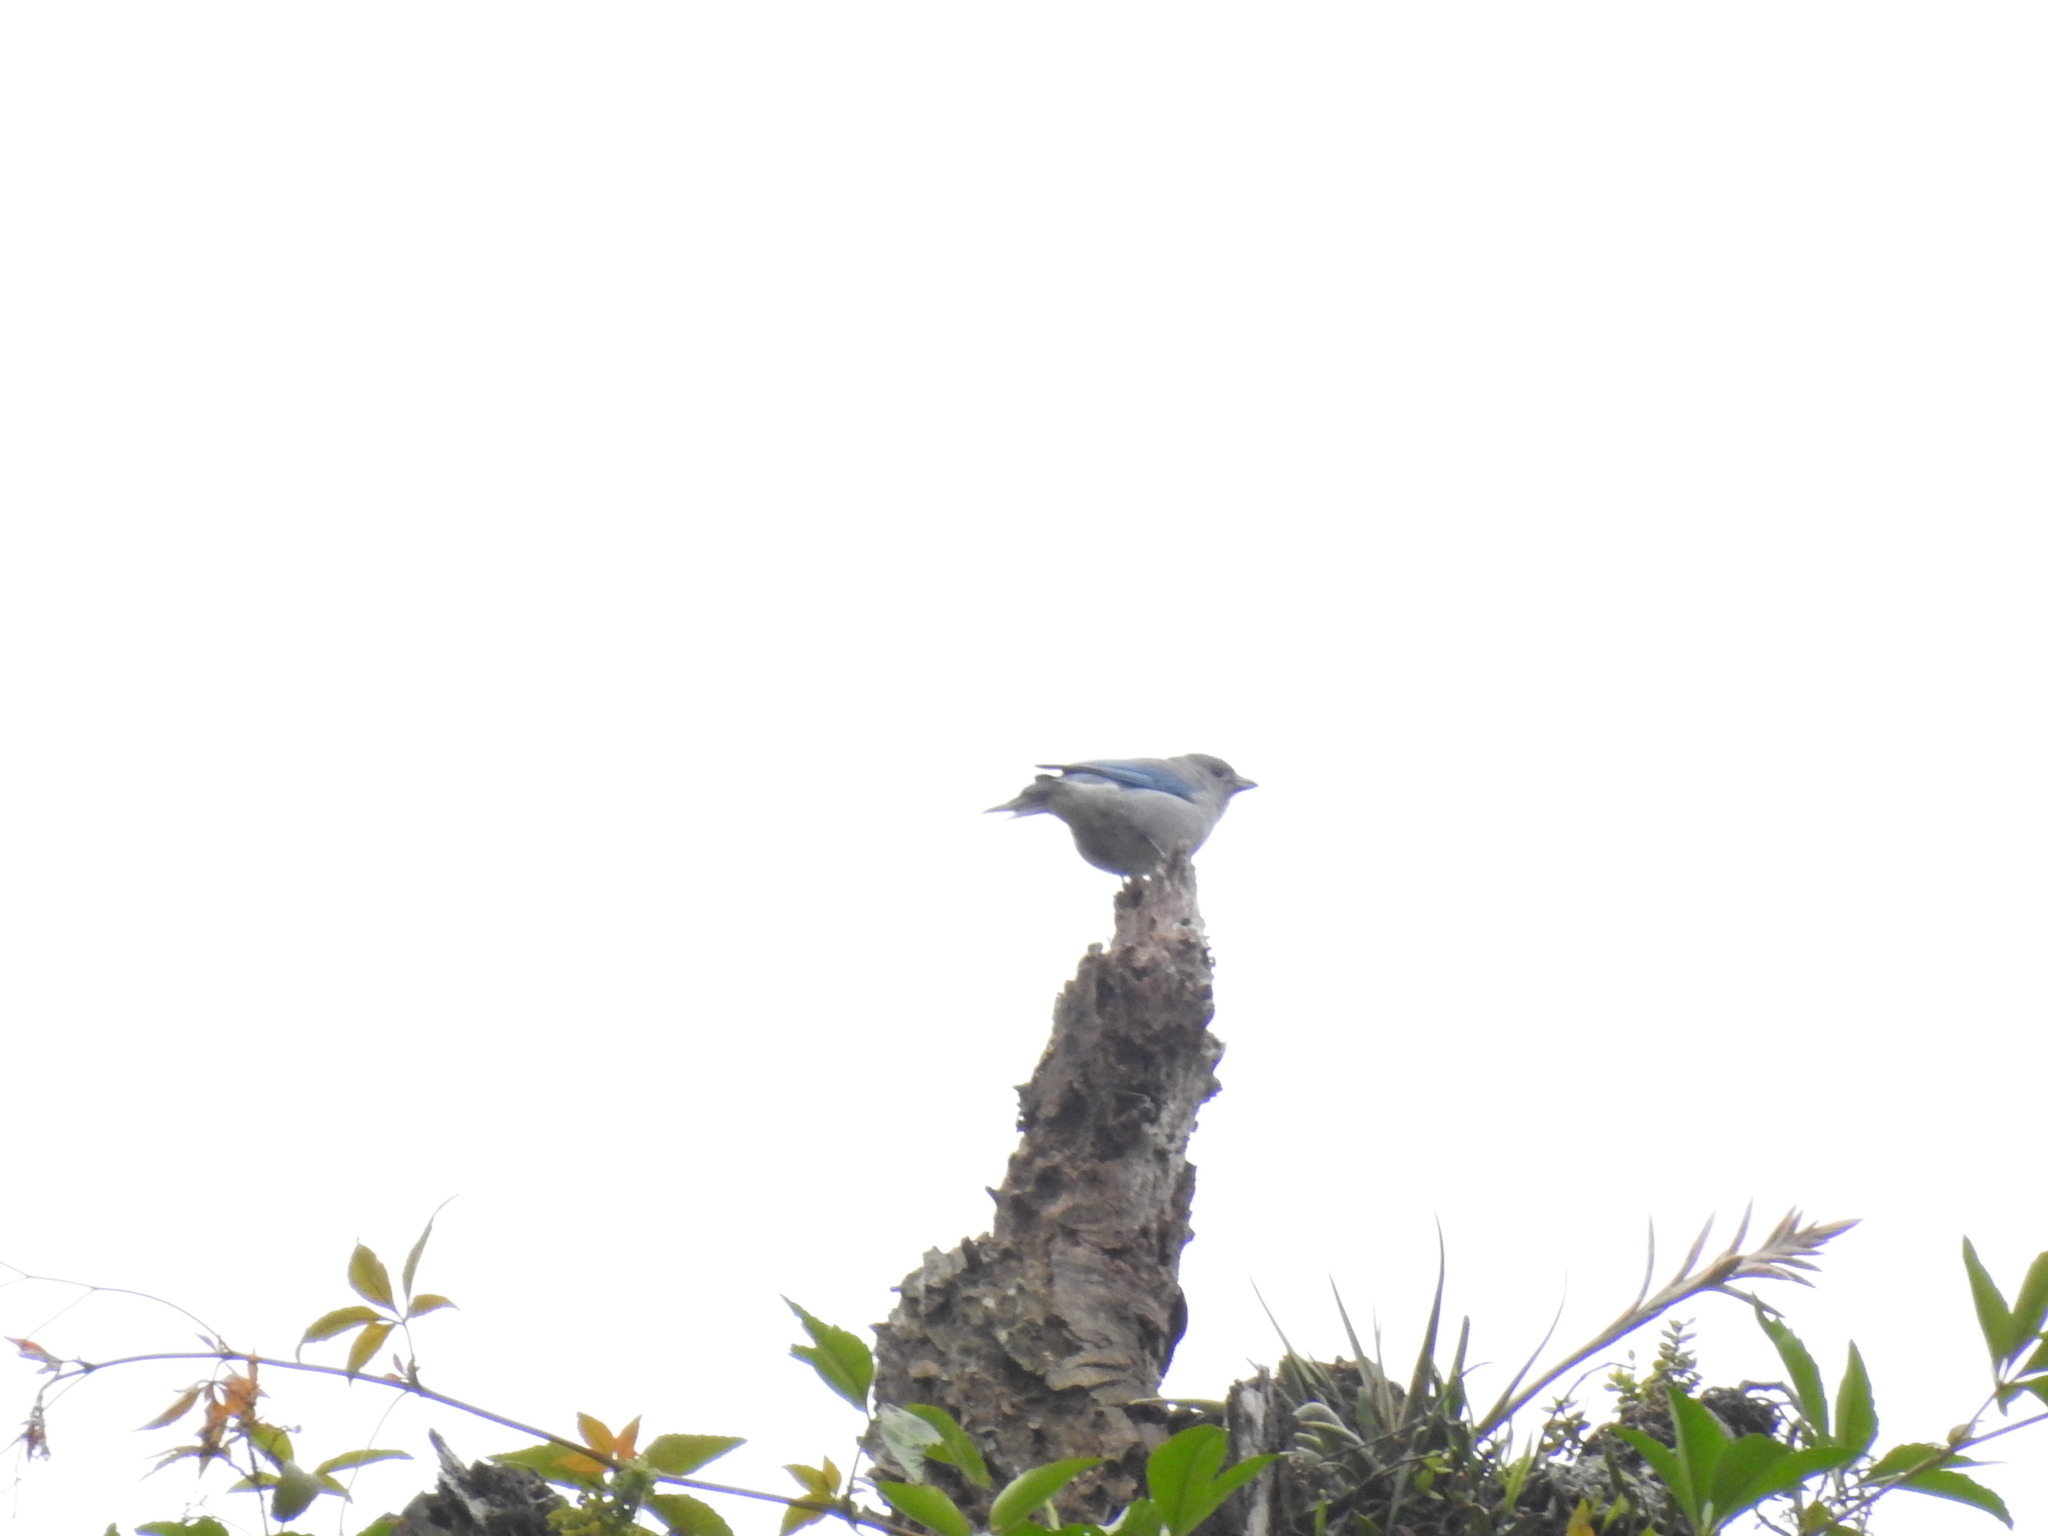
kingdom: Animalia
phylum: Chordata
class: Aves
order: Passeriformes
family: Thraupidae
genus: Thraupis
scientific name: Thraupis sayaca
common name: Sayaca tanager
